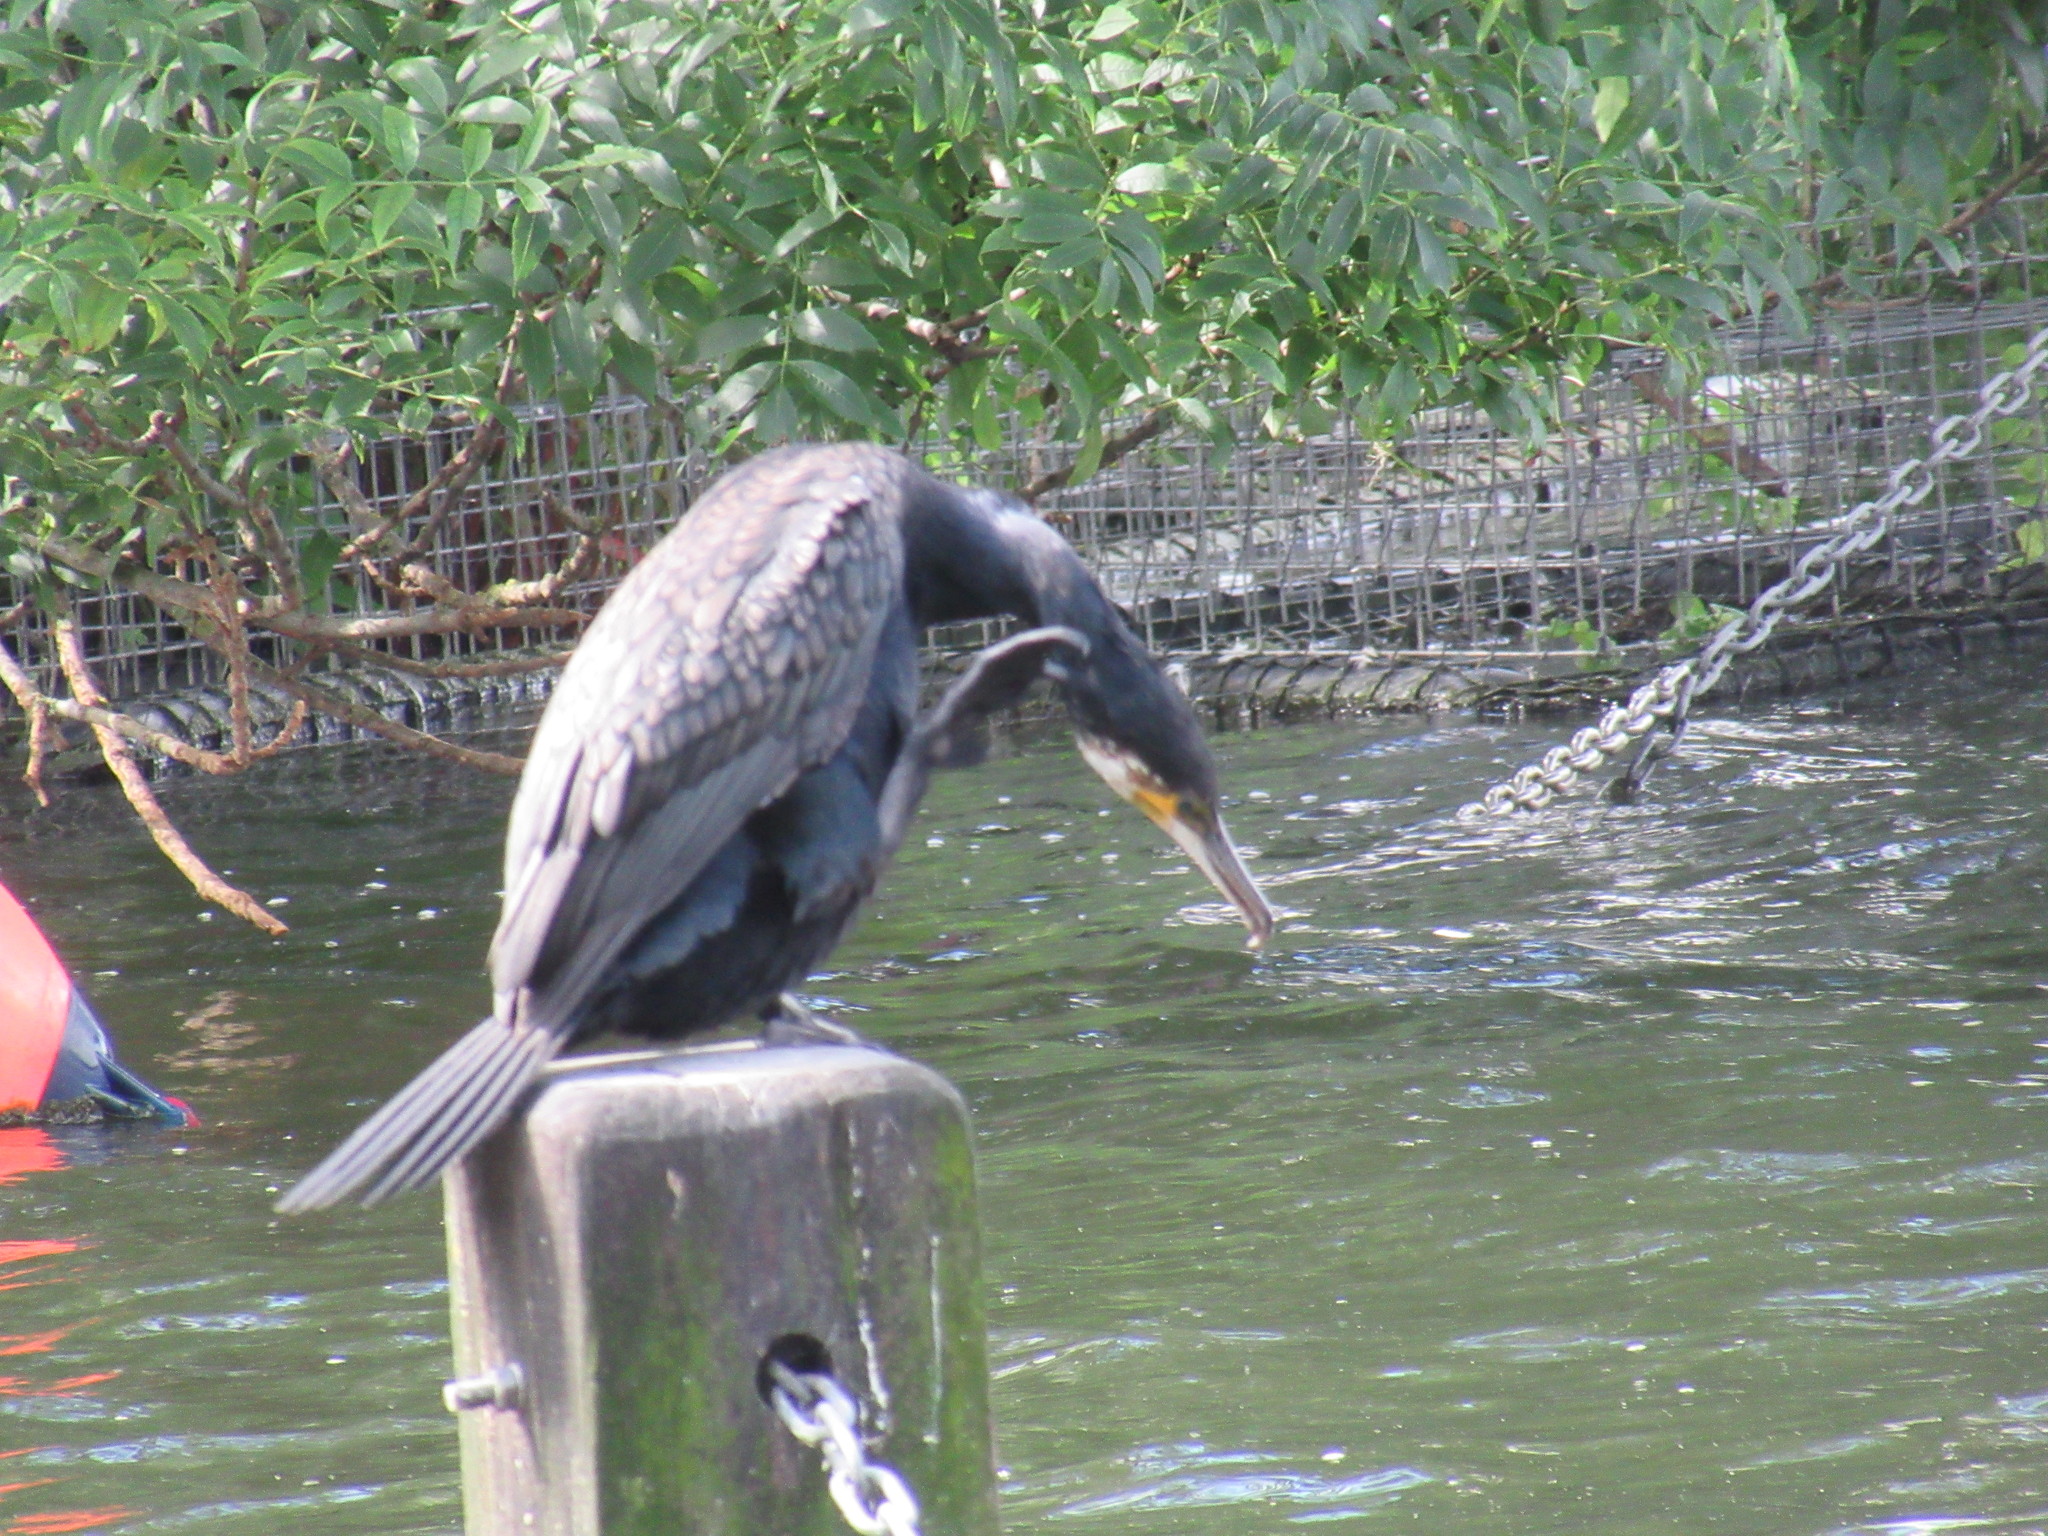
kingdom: Animalia
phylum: Chordata
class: Aves
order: Suliformes
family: Phalacrocoracidae
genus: Phalacrocorax
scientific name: Phalacrocorax carbo
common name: Great cormorant
